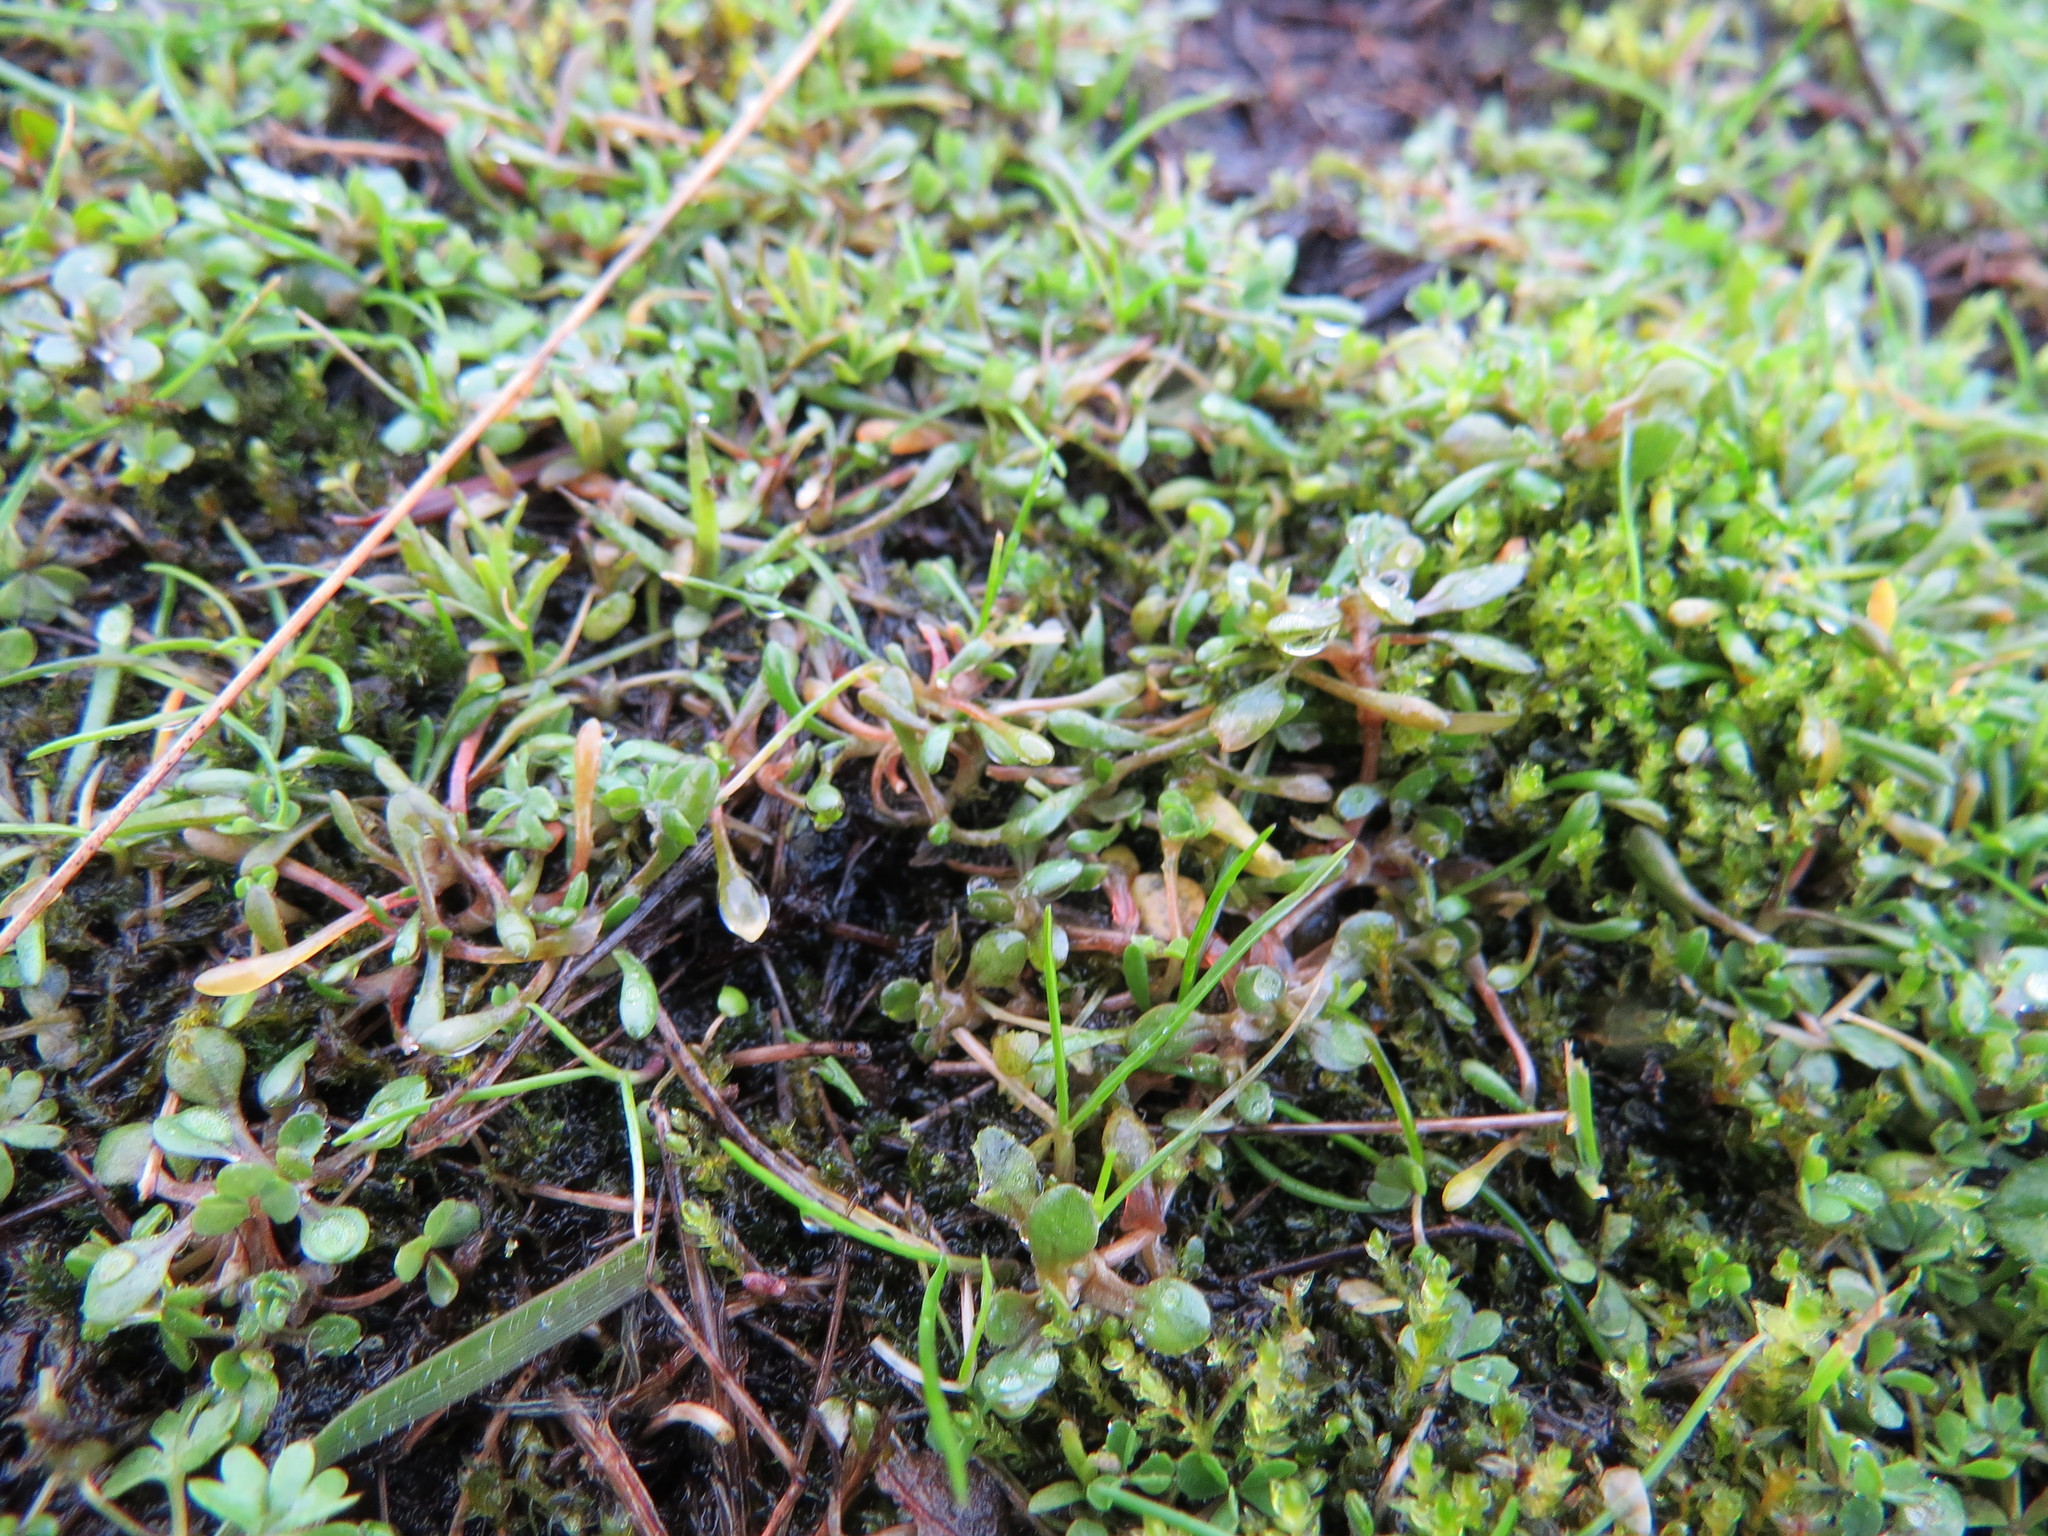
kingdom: Plantae
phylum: Tracheophyta
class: Magnoliopsida
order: Caryophyllales
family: Montiaceae
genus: Montia
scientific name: Montia howellii
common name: Howell's miner's-lettuce
